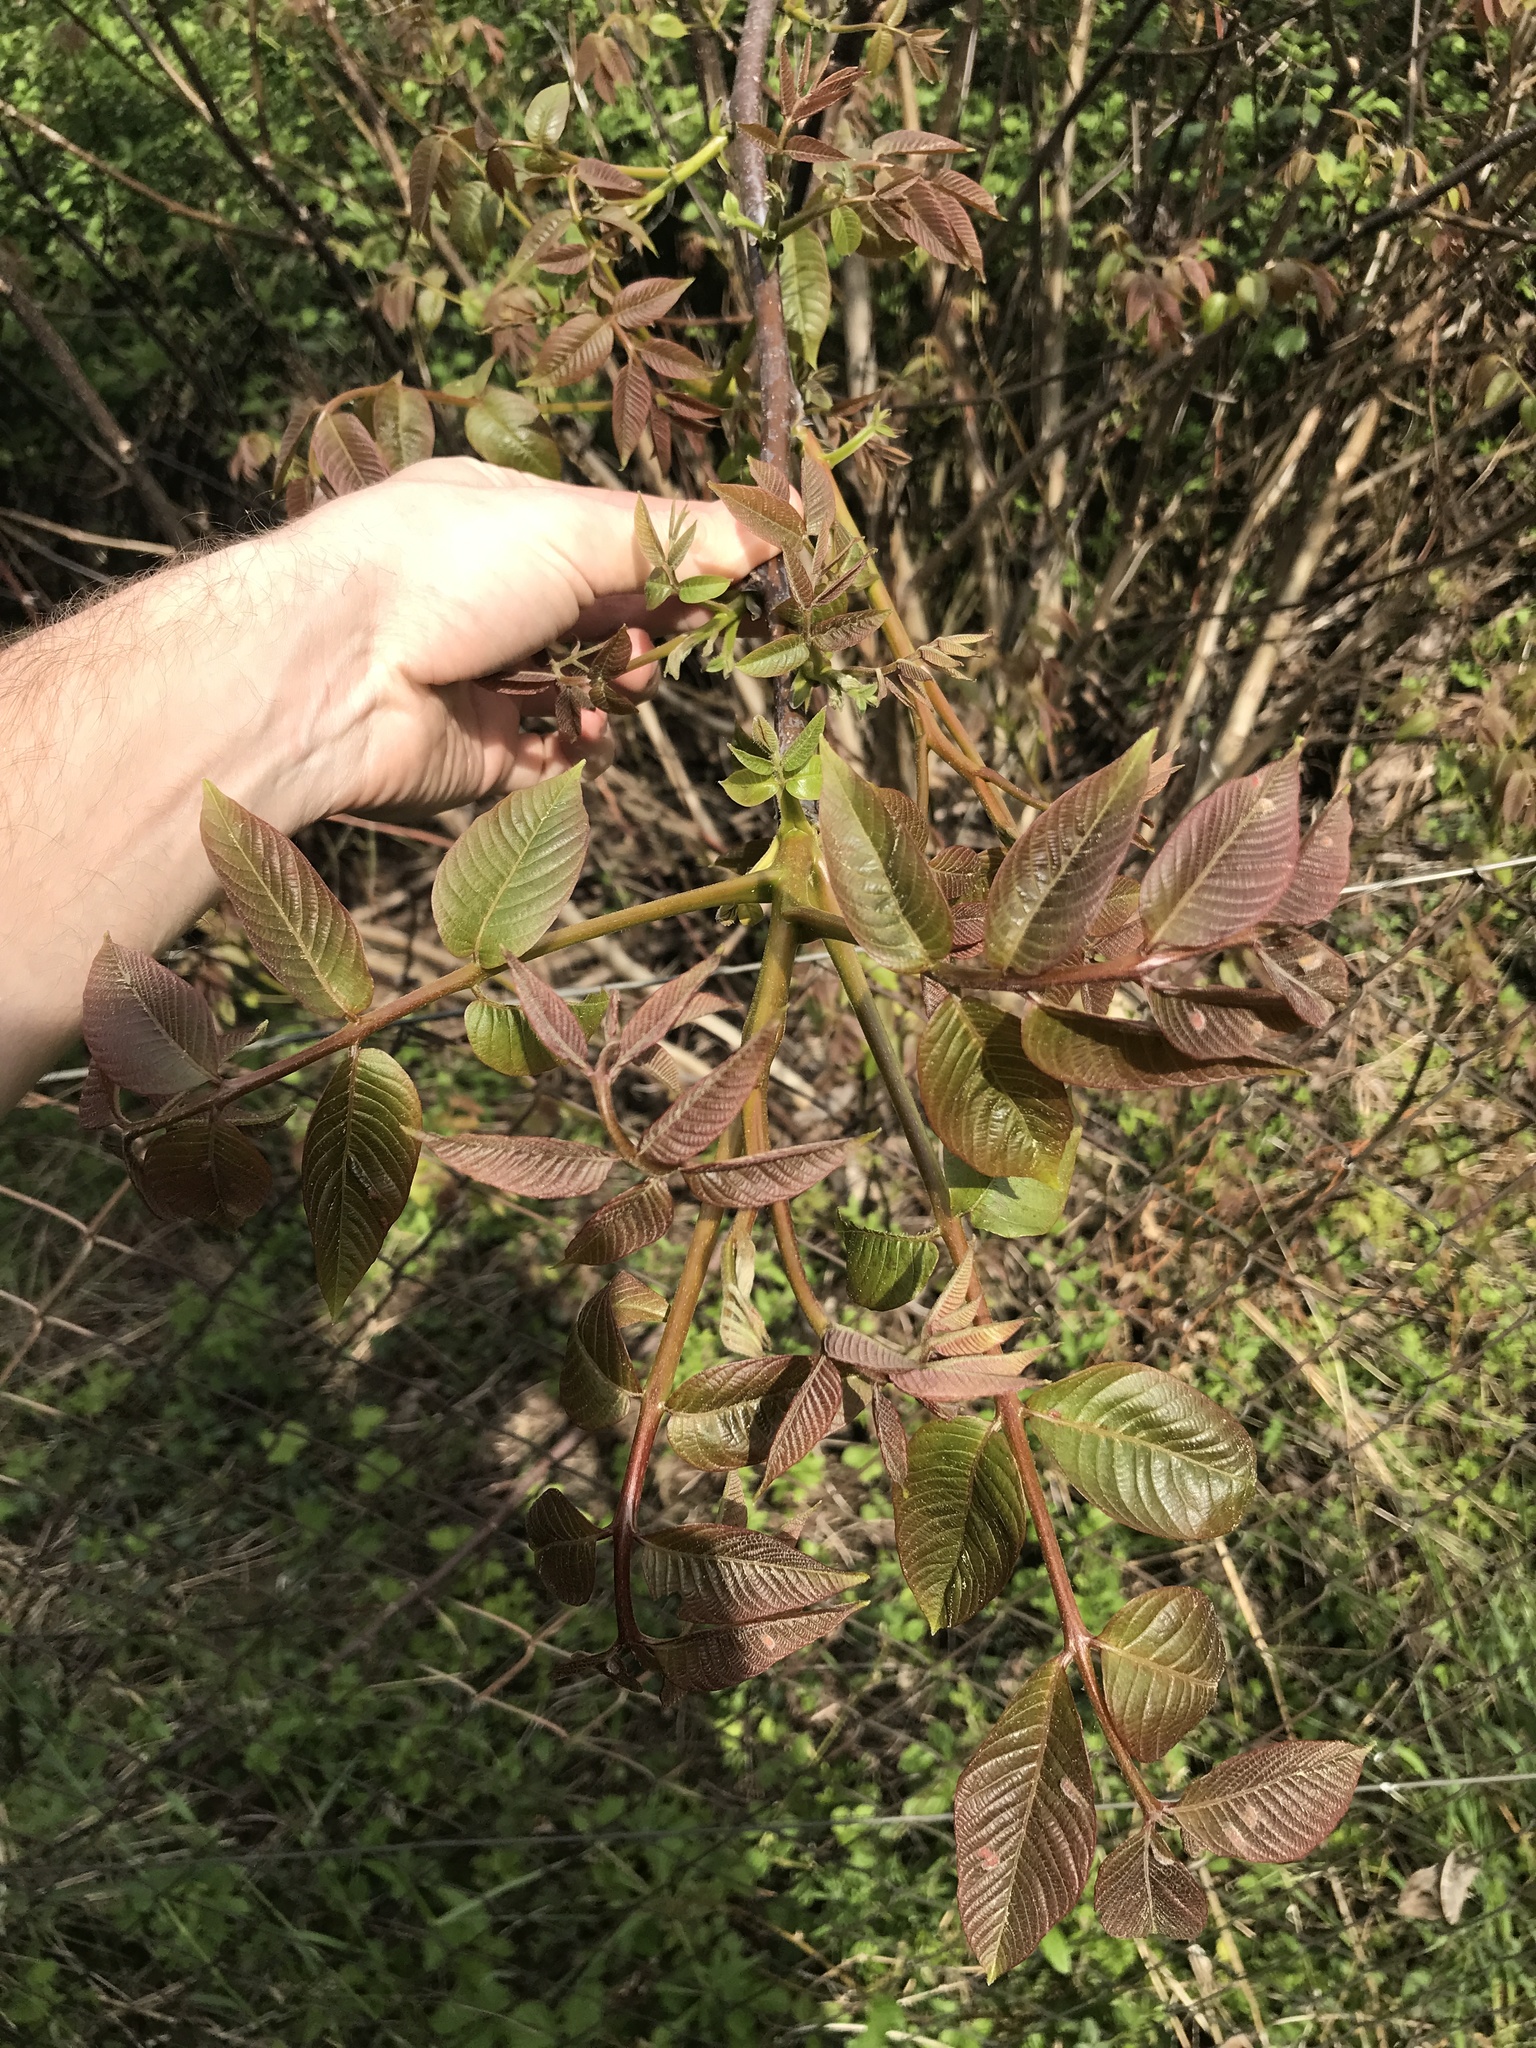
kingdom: Plantae
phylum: Tracheophyta
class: Magnoliopsida
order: Fagales
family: Juglandaceae
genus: Juglans
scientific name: Juglans regia
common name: Walnut
